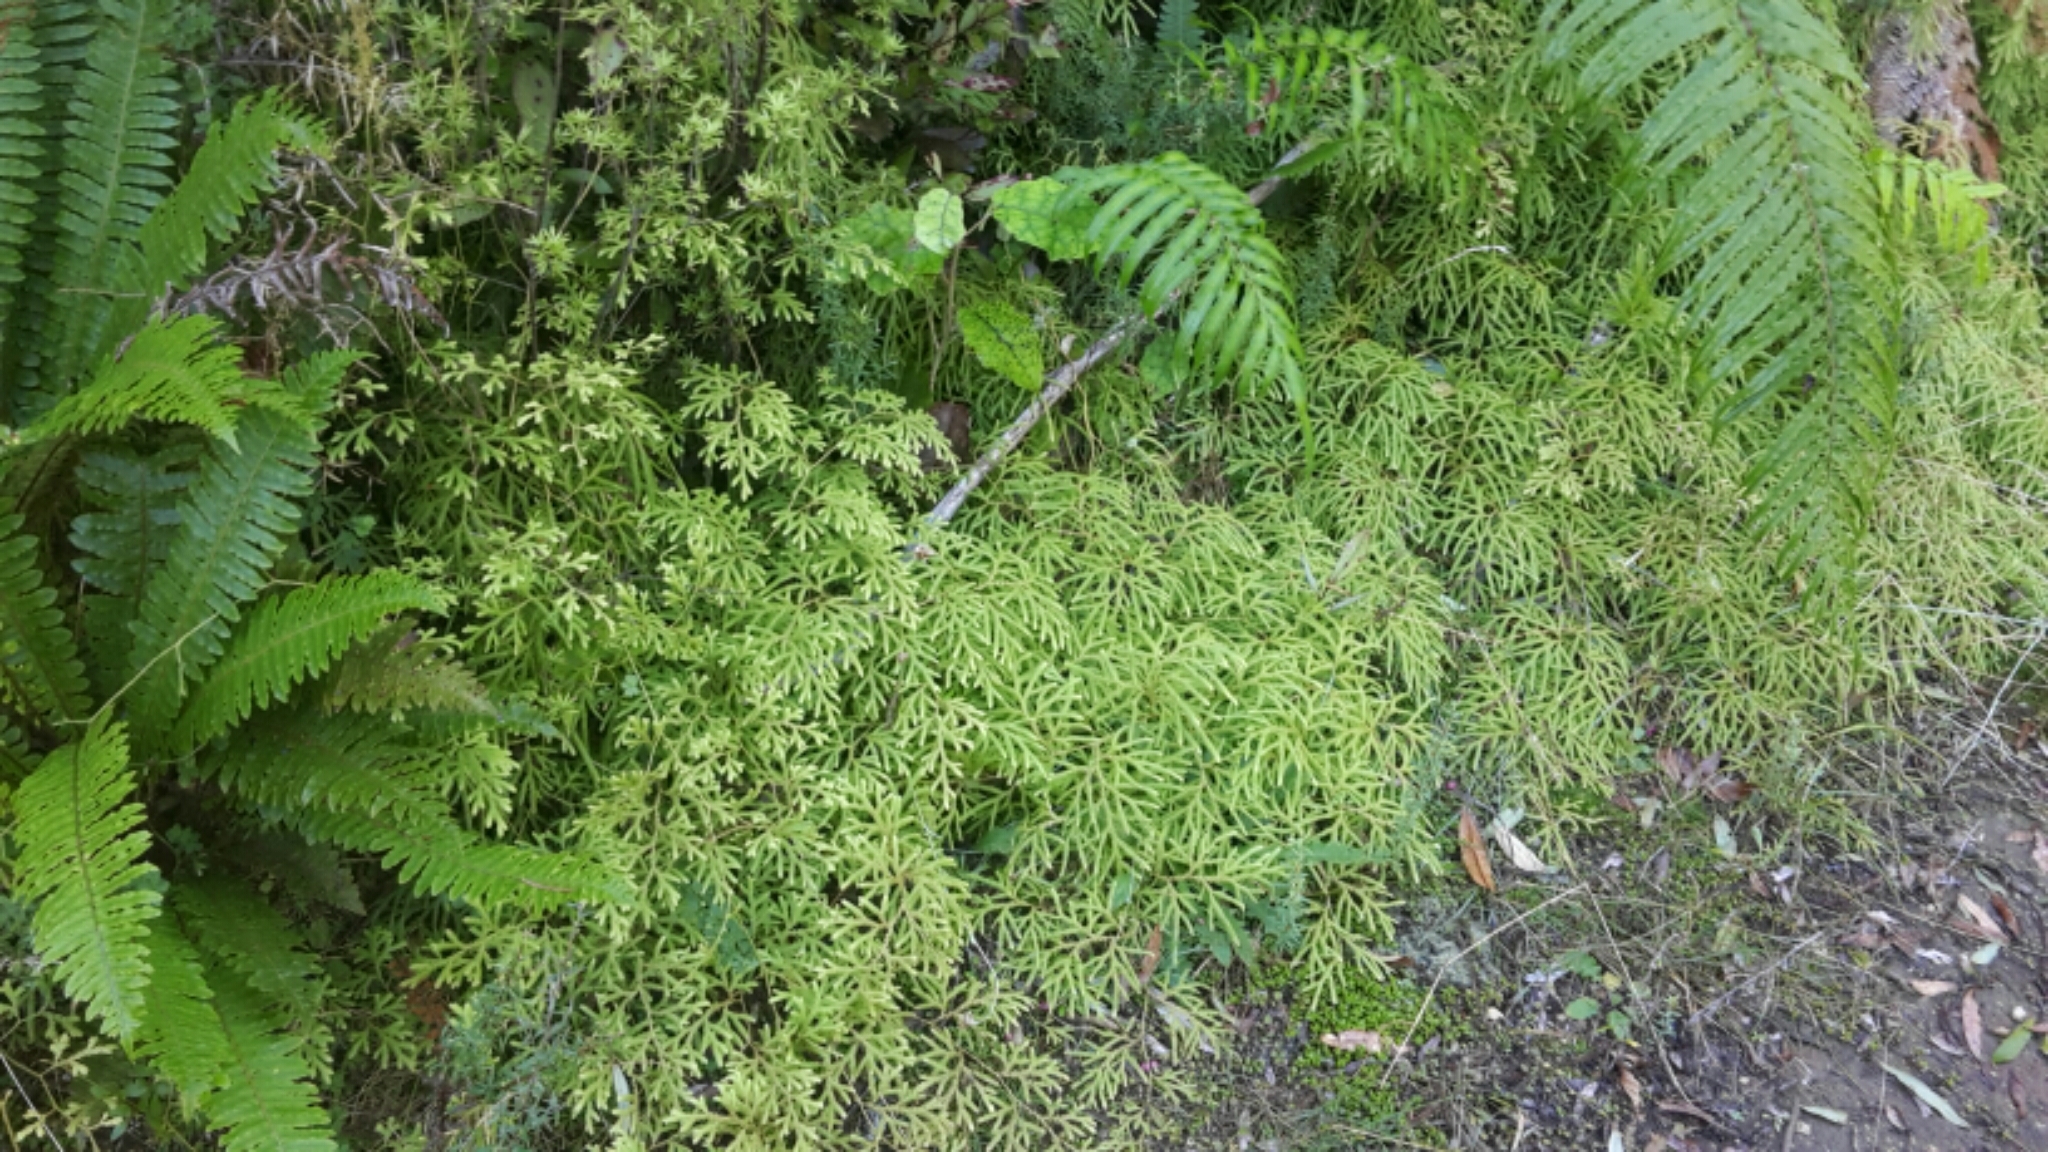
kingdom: Plantae
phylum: Tracheophyta
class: Lycopodiopsida
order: Lycopodiales
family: Lycopodiaceae
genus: Lycopodium
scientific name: Lycopodium volubile
